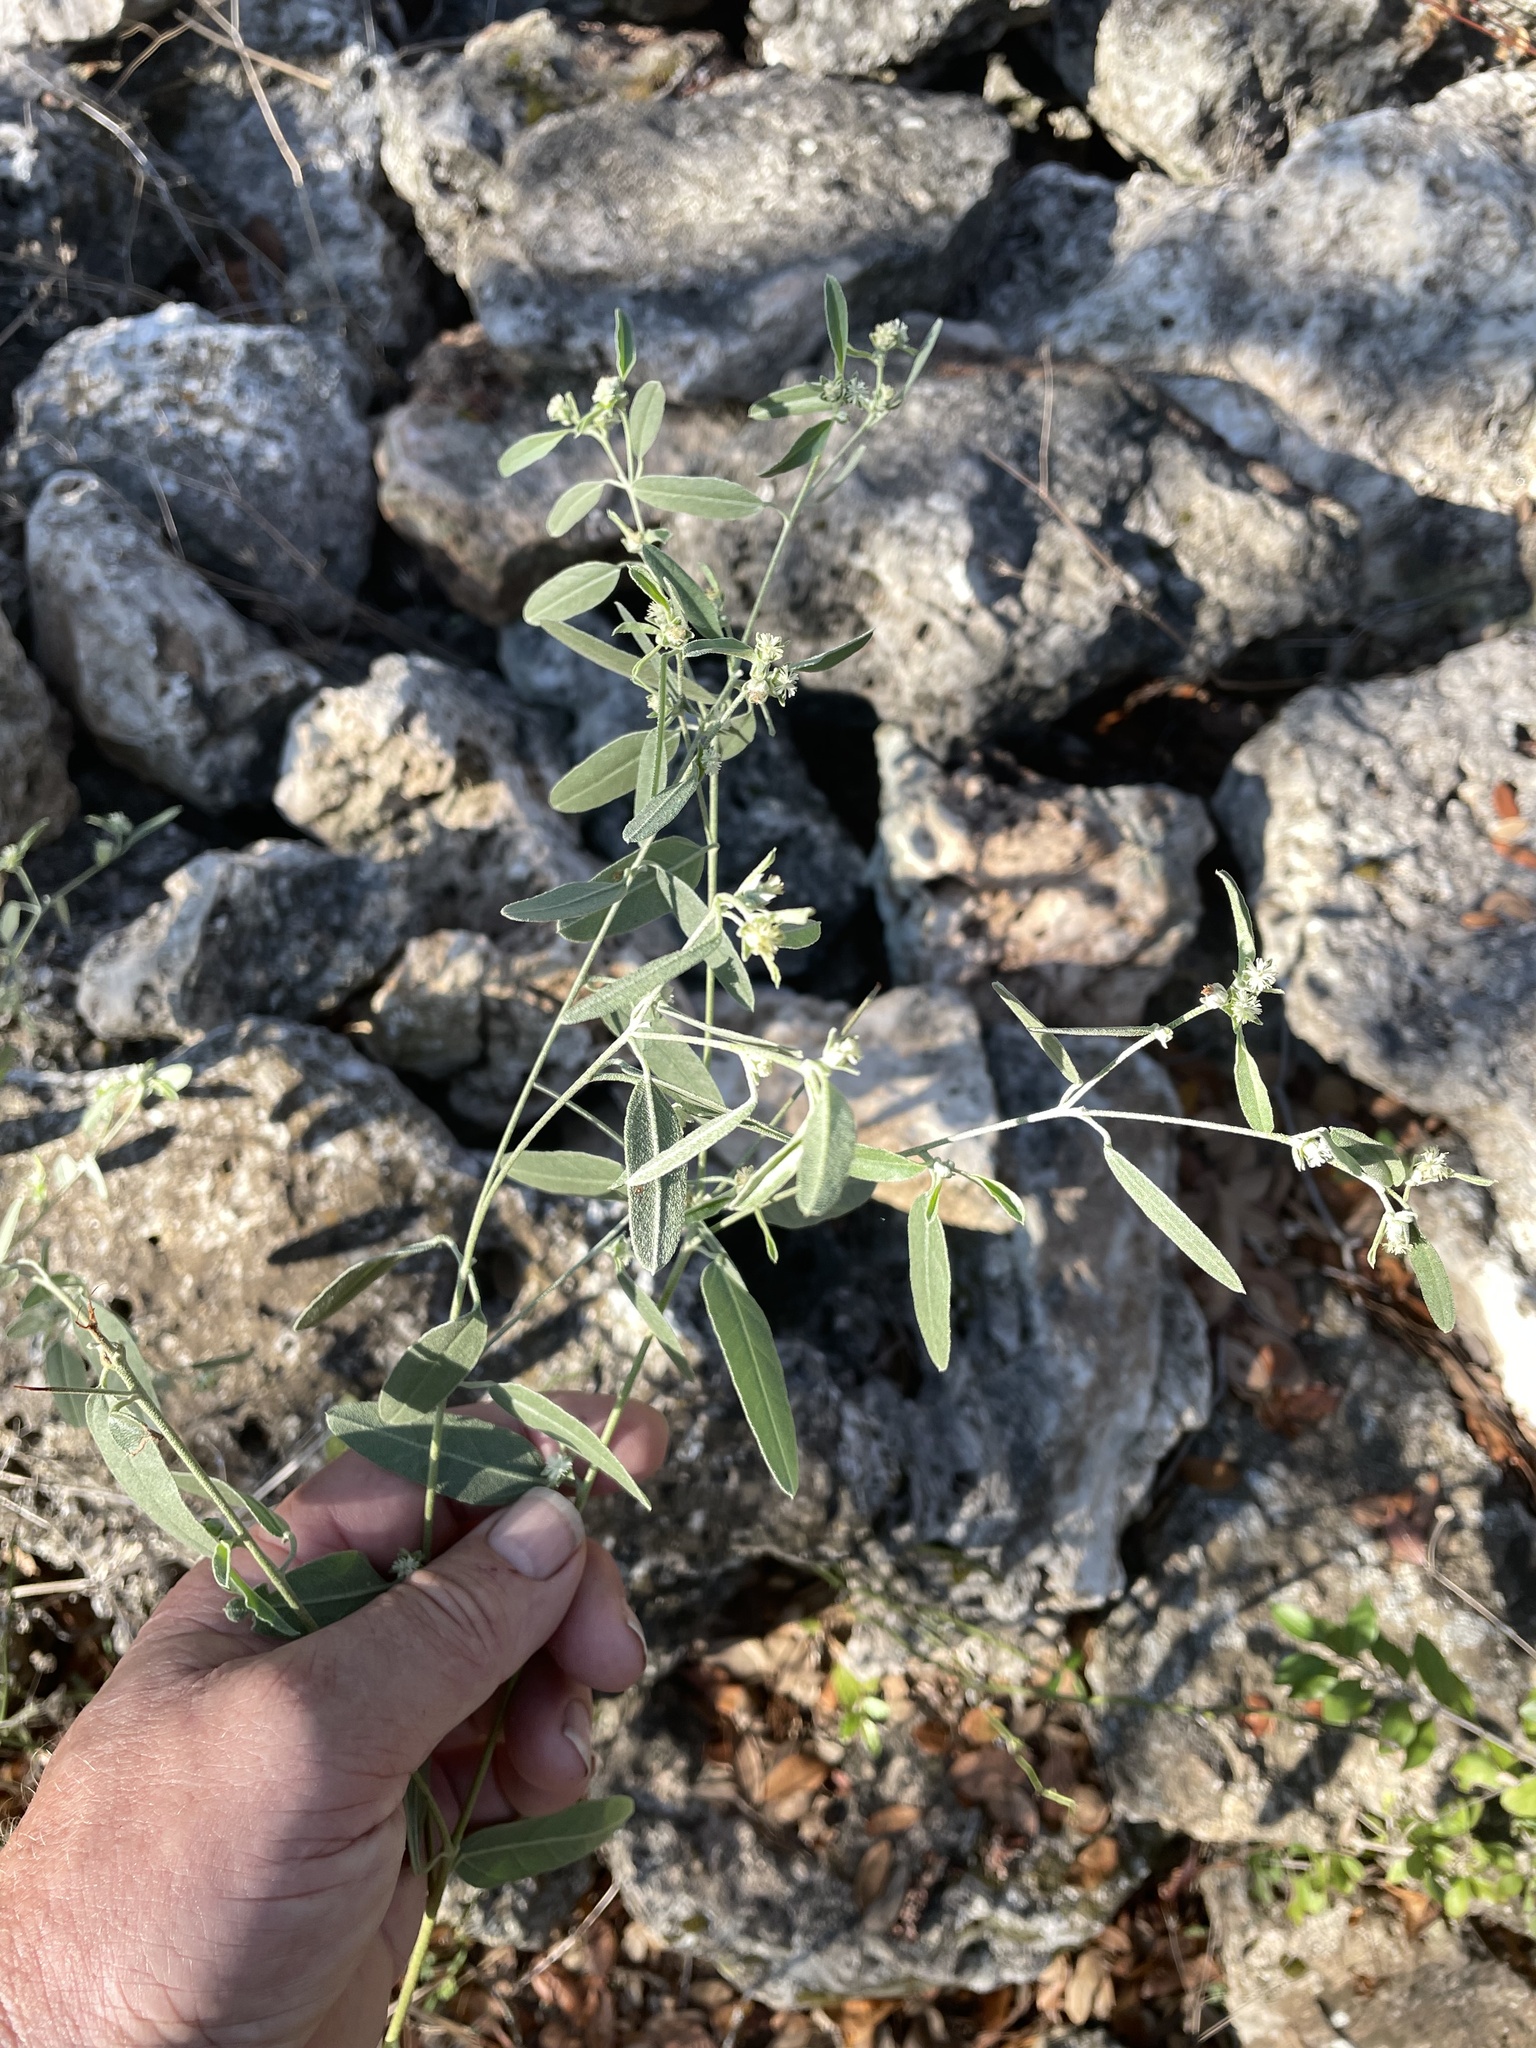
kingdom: Plantae
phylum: Tracheophyta
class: Magnoliopsida
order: Malpighiales
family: Euphorbiaceae
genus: Croton
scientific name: Croton texensis
